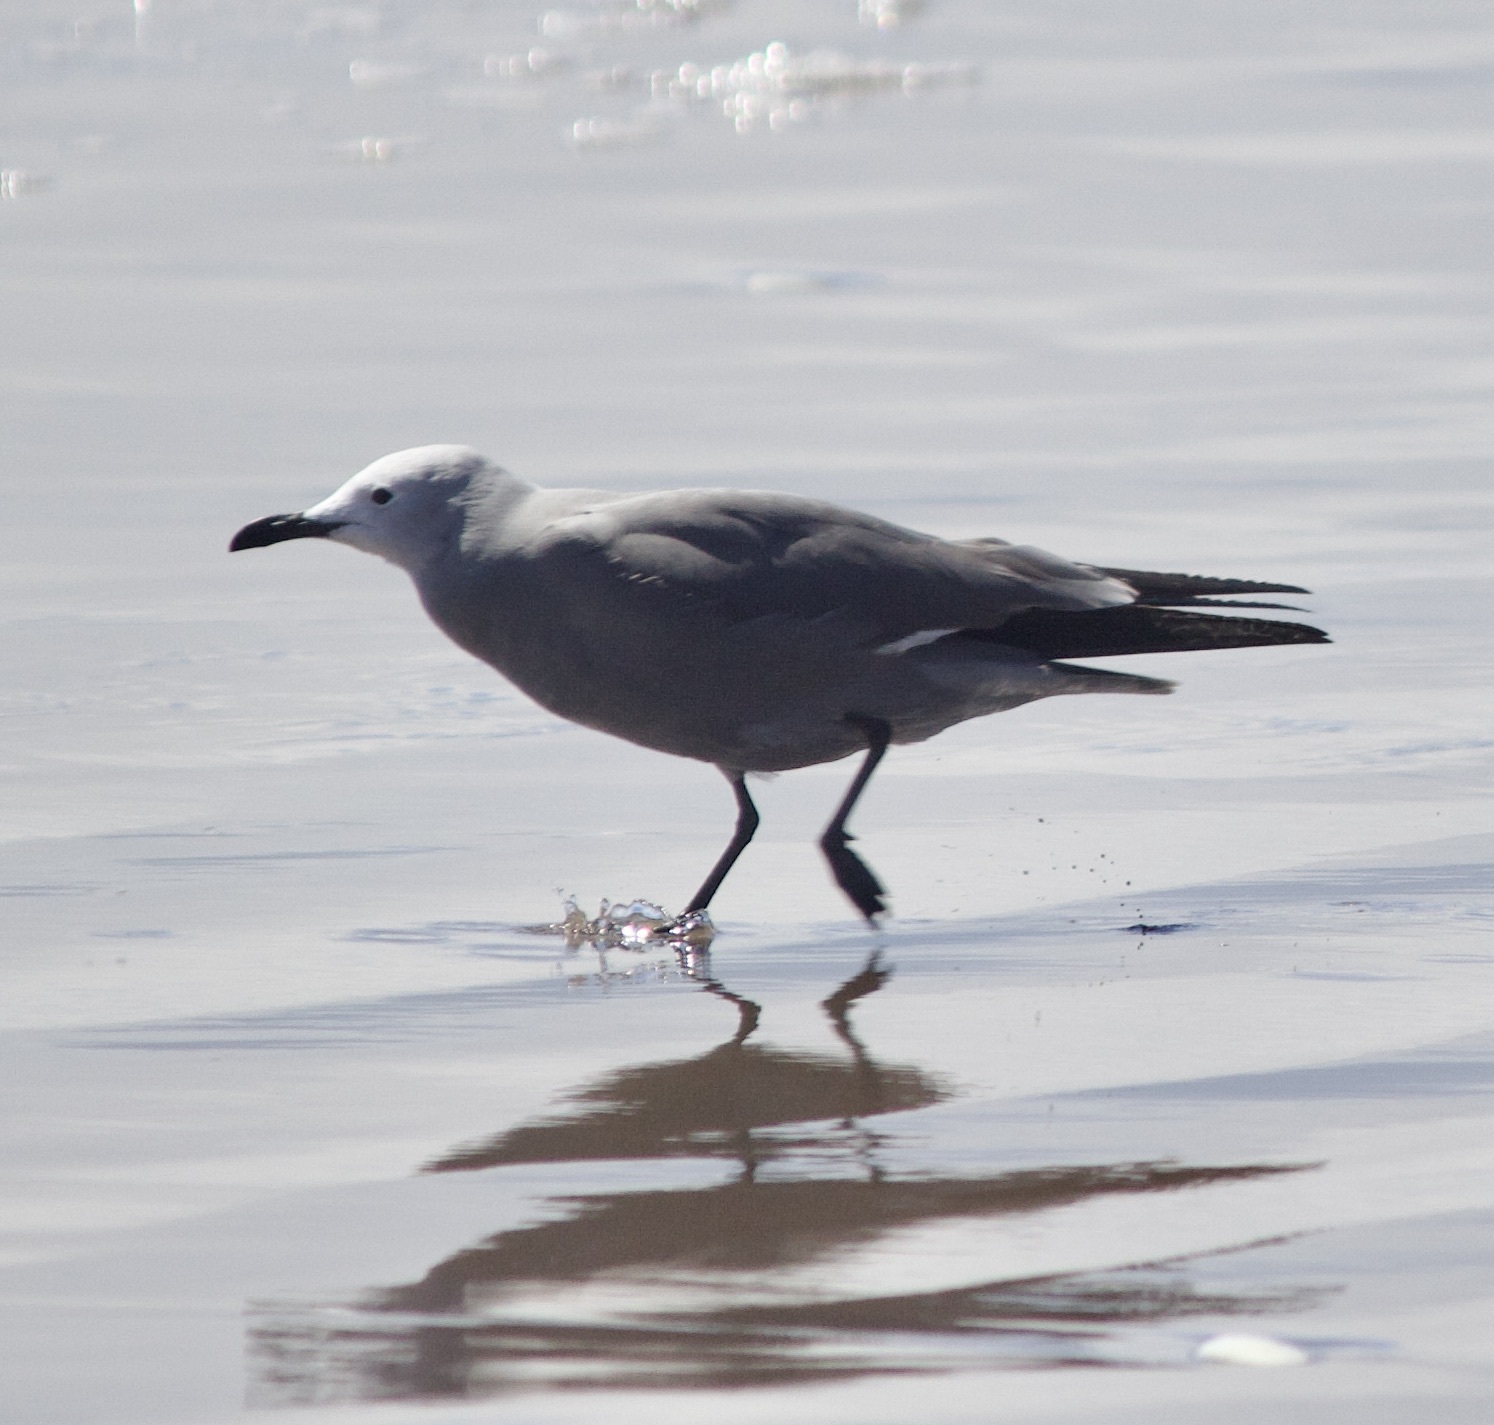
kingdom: Animalia
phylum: Chordata
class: Aves
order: Charadriiformes
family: Laridae
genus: Leucophaeus
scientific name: Leucophaeus modestus
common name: Gray gull
